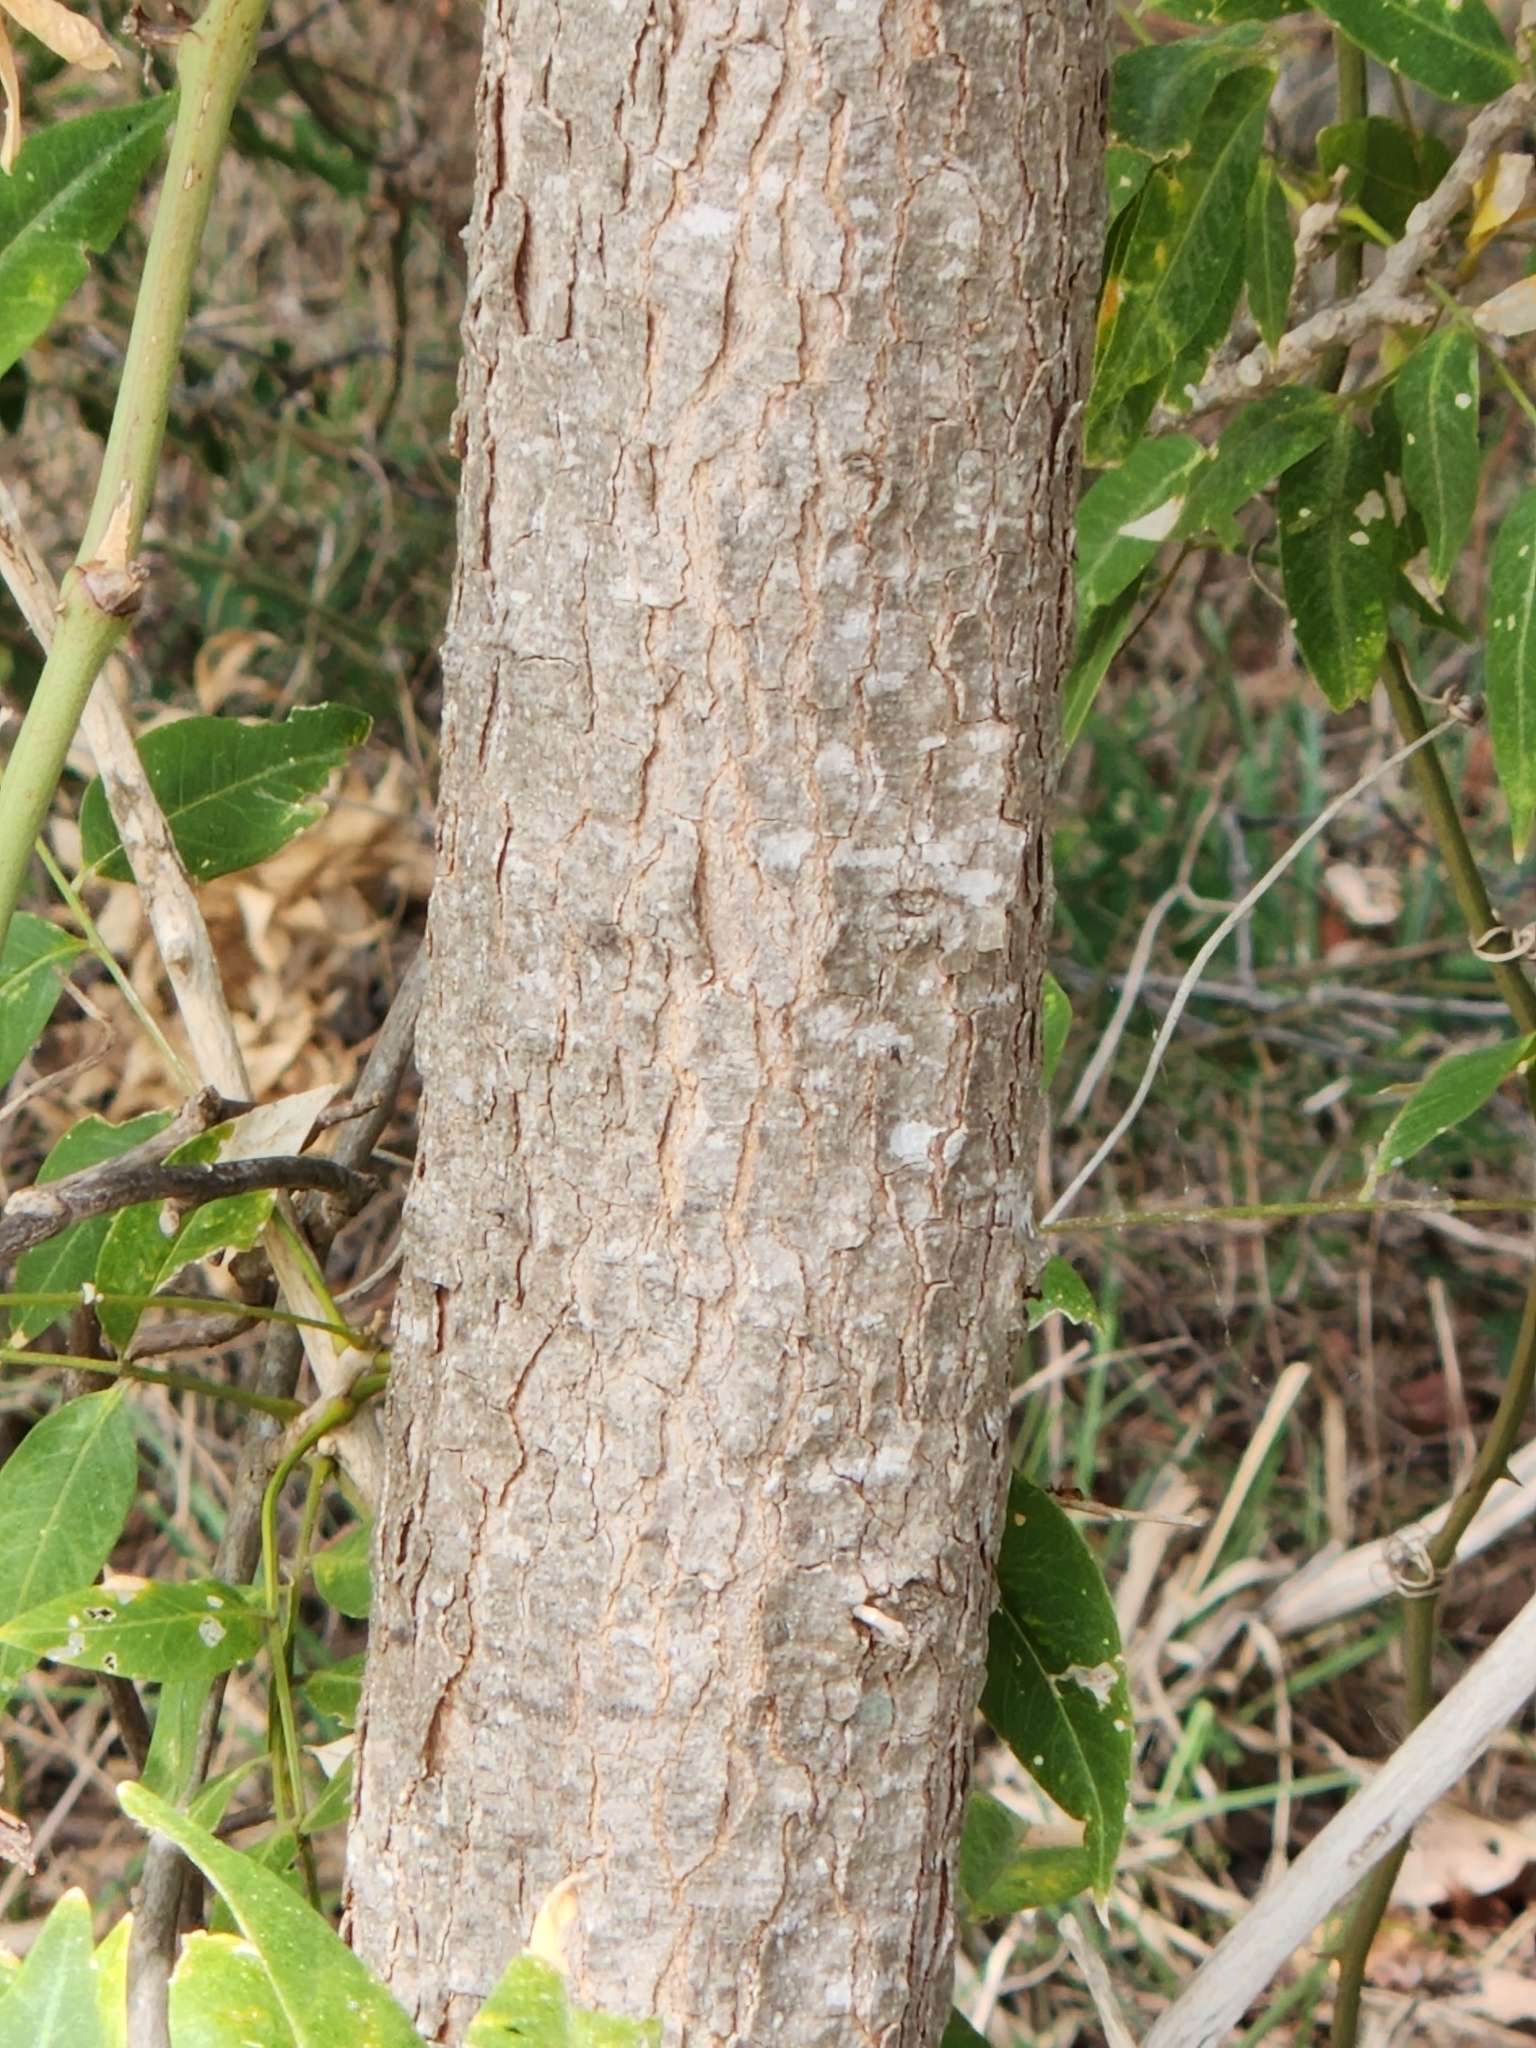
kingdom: Plantae
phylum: Tracheophyta
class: Magnoliopsida
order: Sapindales
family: Sapindaceae
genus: Sapindus
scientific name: Sapindus drummondii
